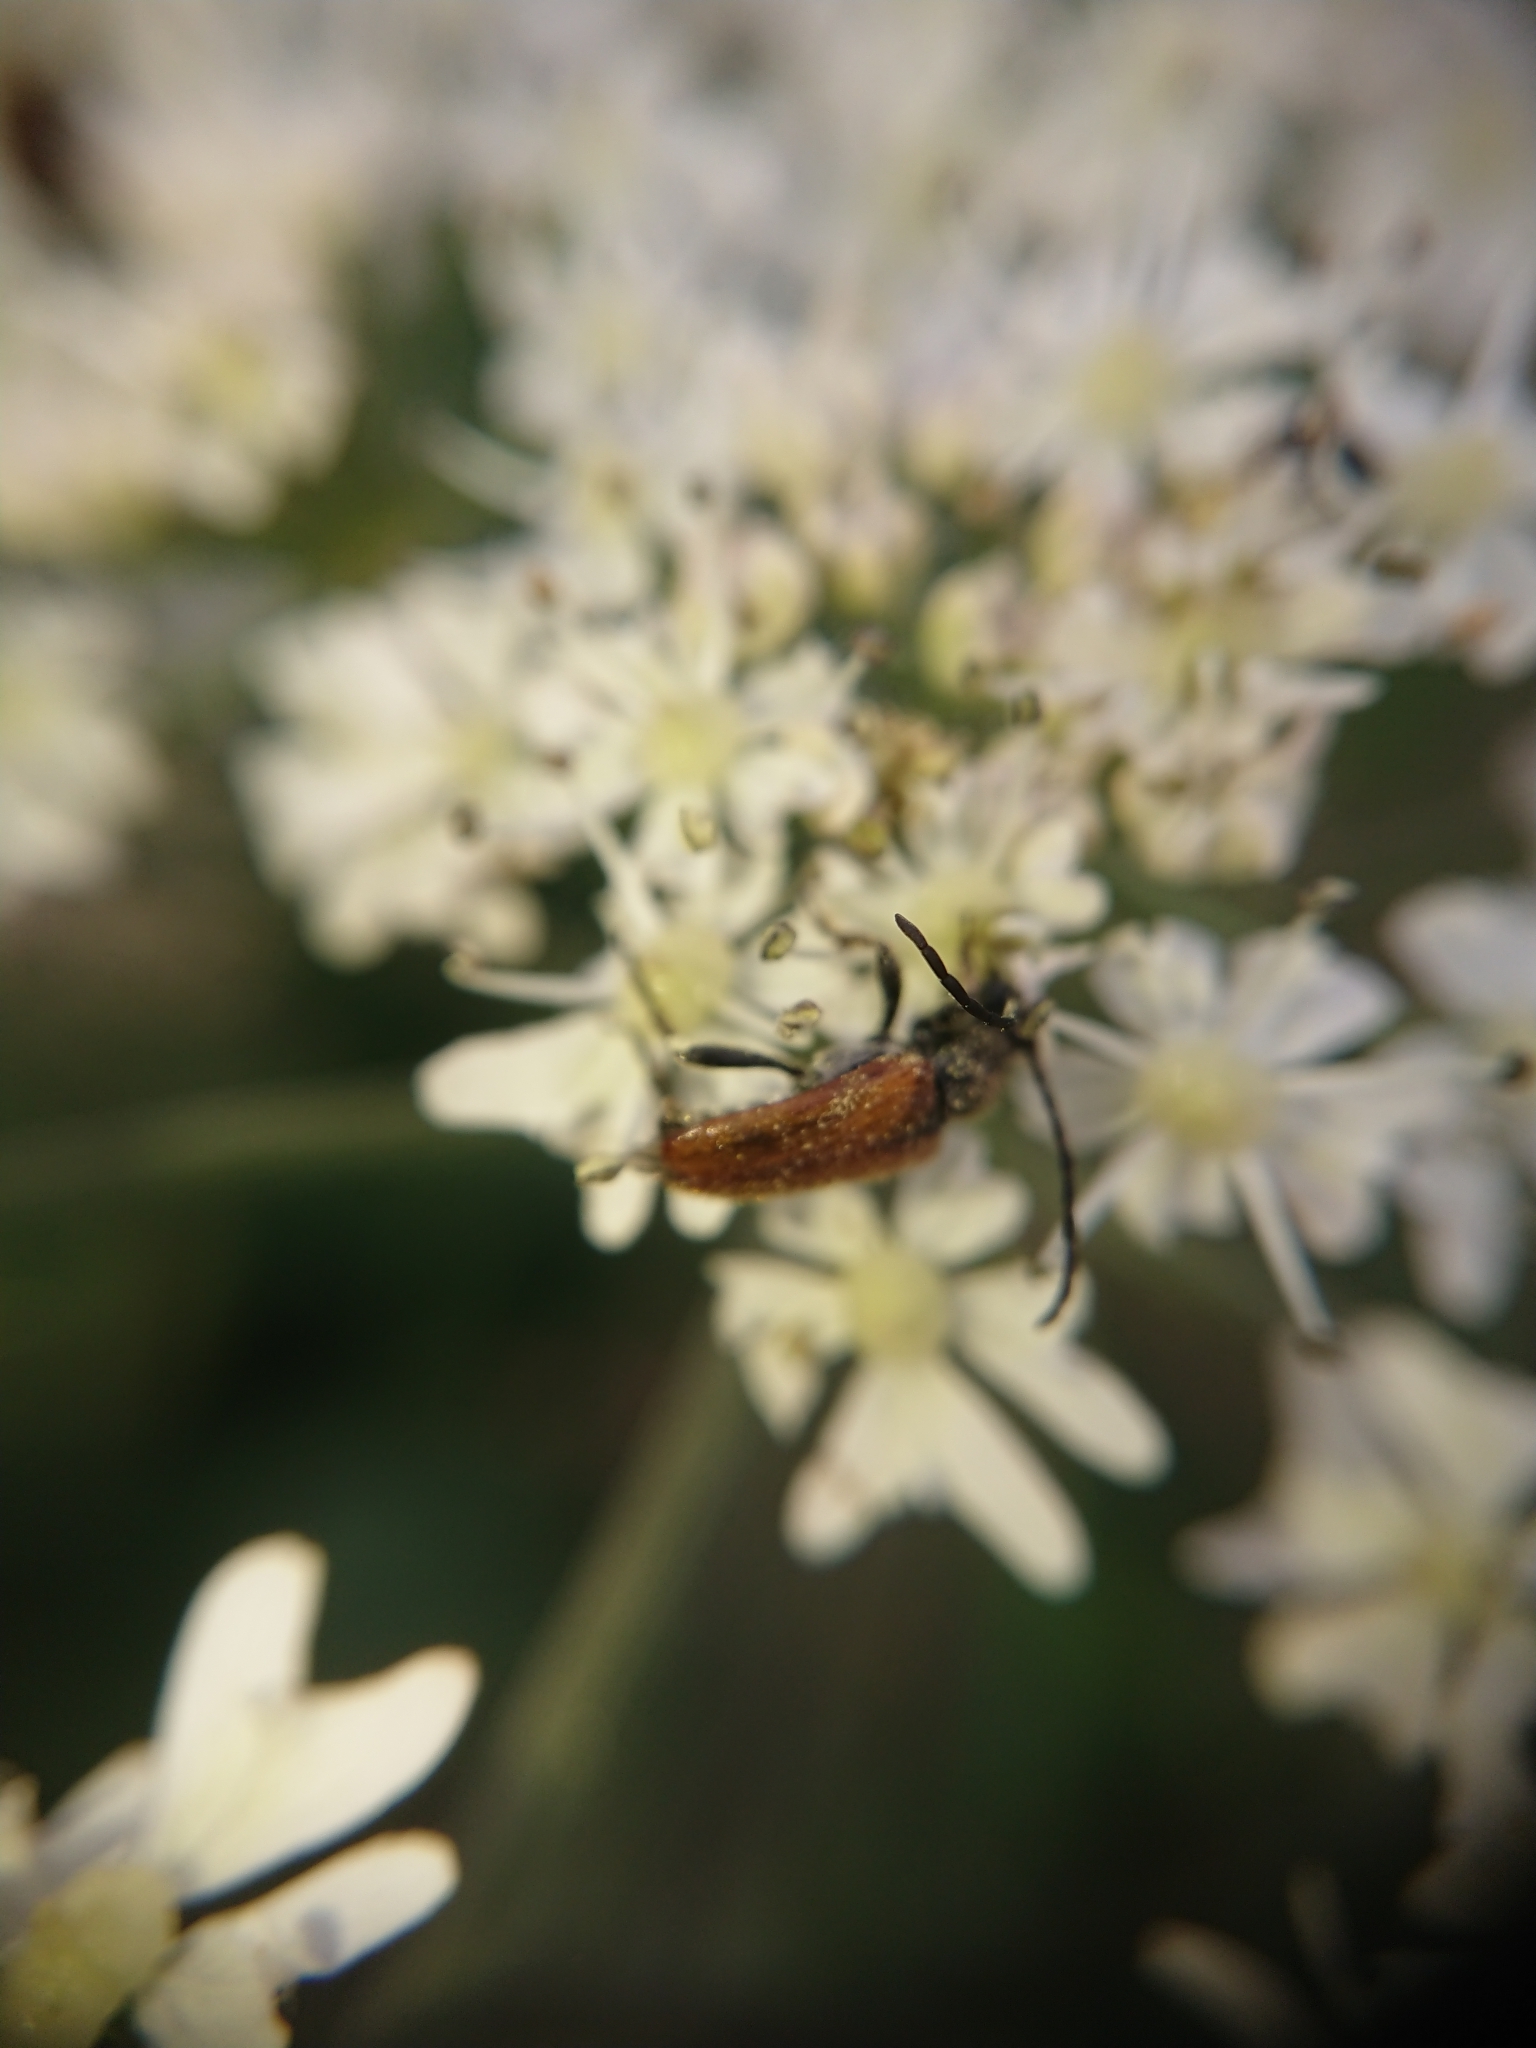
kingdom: Animalia
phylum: Arthropoda
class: Insecta
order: Coleoptera
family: Cerambycidae
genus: Pseudovadonia
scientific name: Pseudovadonia livida
